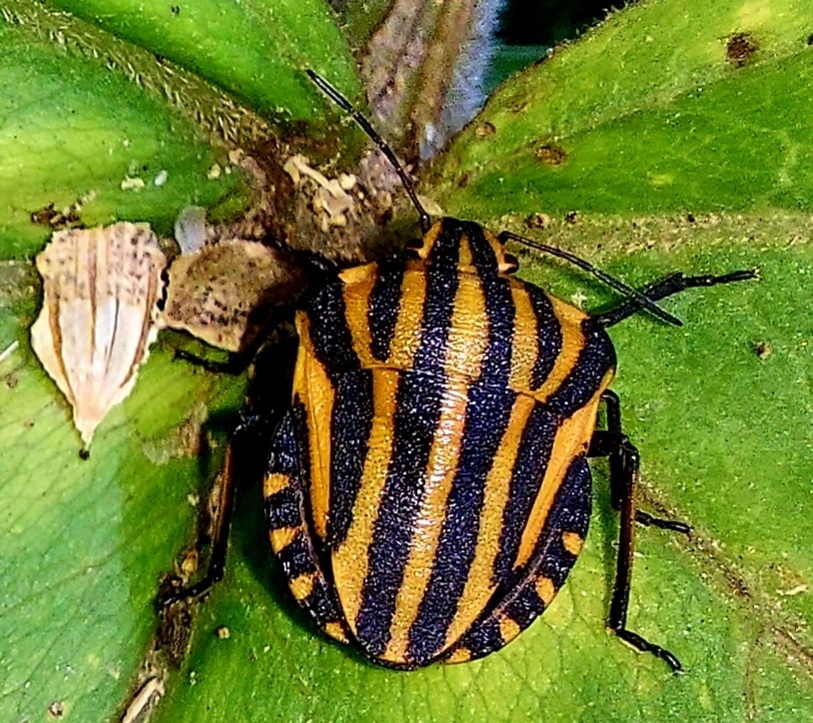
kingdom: Animalia
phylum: Arthropoda
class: Insecta
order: Hemiptera
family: Pentatomidae
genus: Graphosoma
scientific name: Graphosoma italicum
